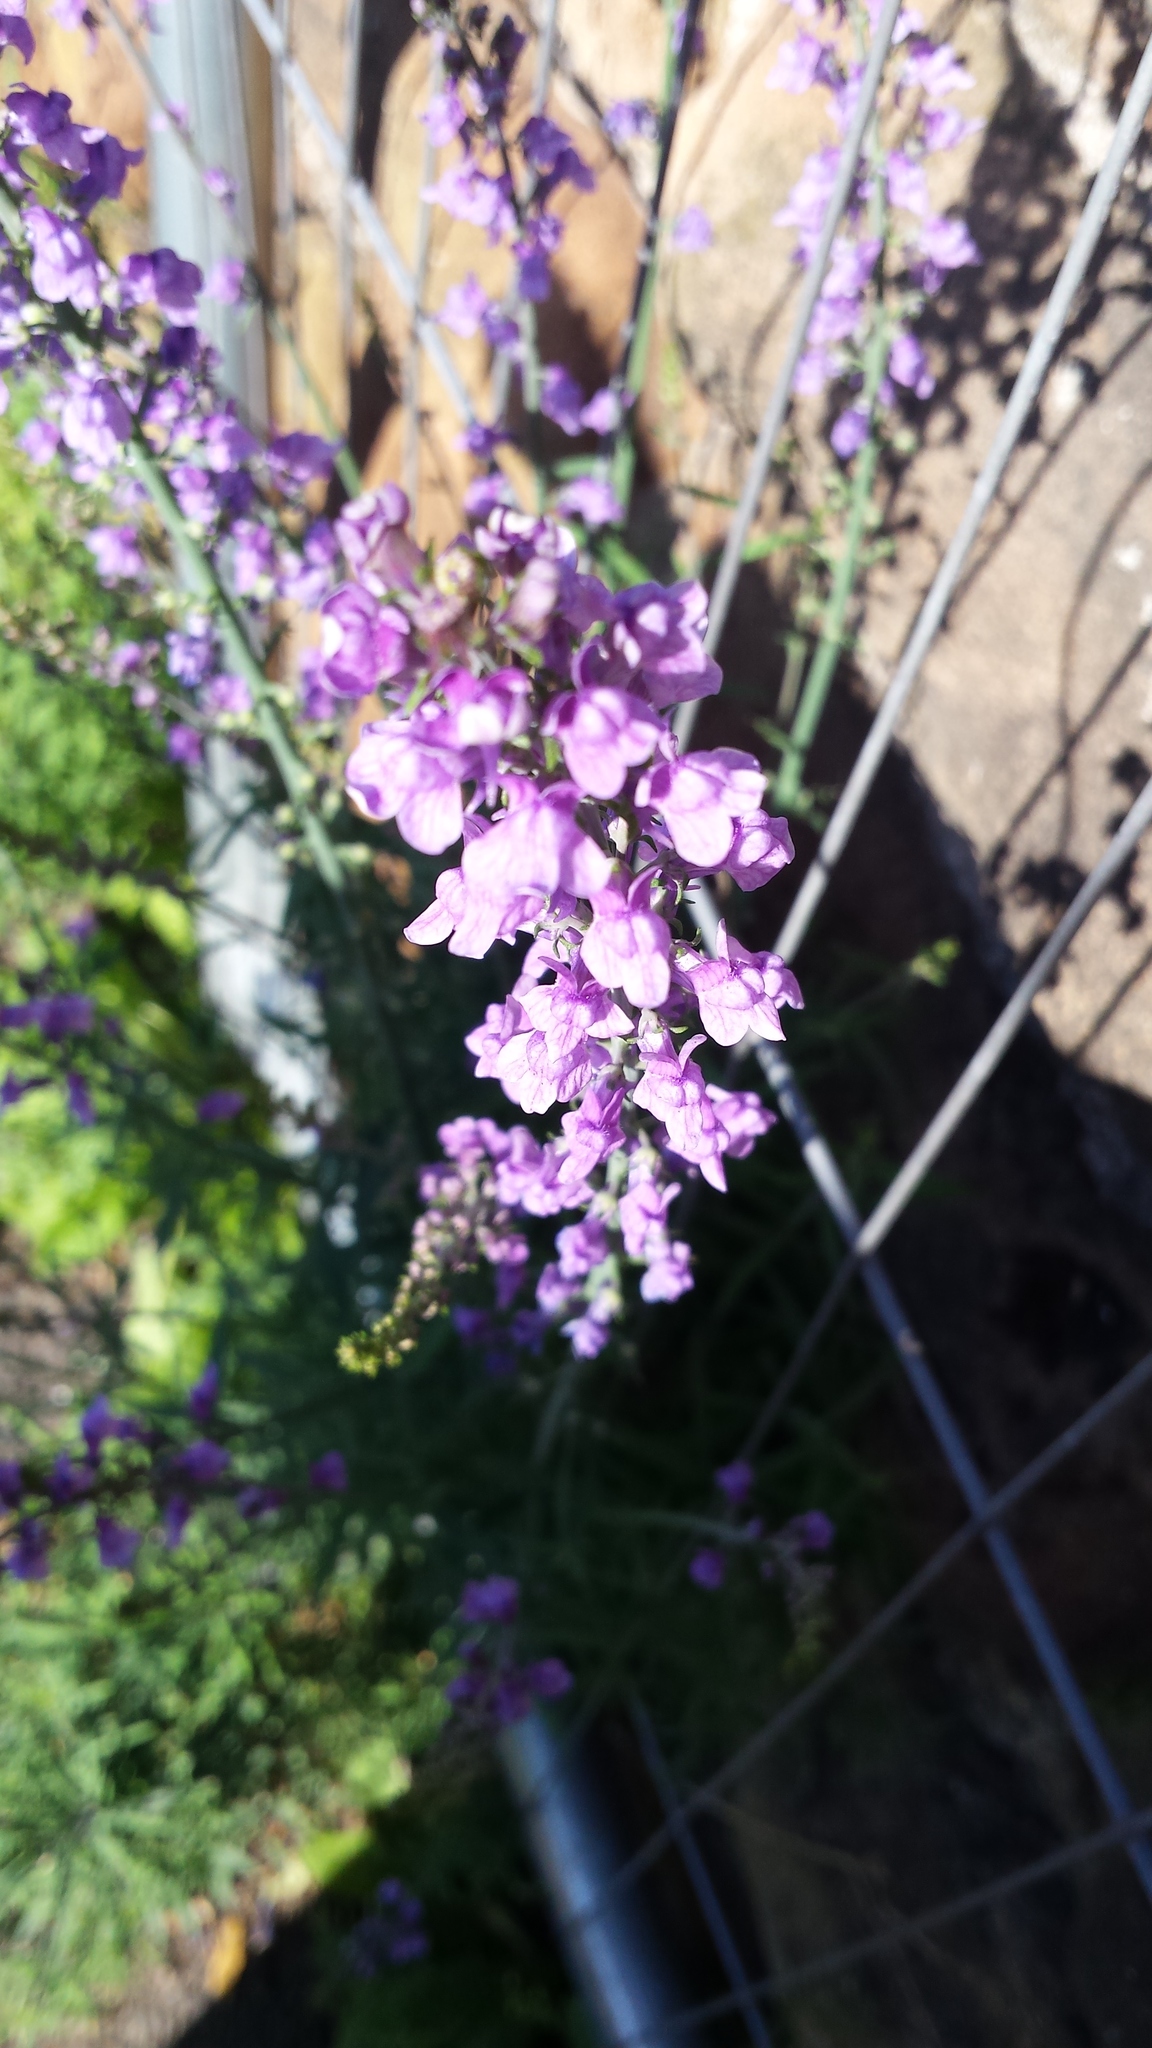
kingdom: Plantae
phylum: Tracheophyta
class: Magnoliopsida
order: Lamiales
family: Plantaginaceae
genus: Linaria
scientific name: Linaria purpurea
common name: Purple toadflax
